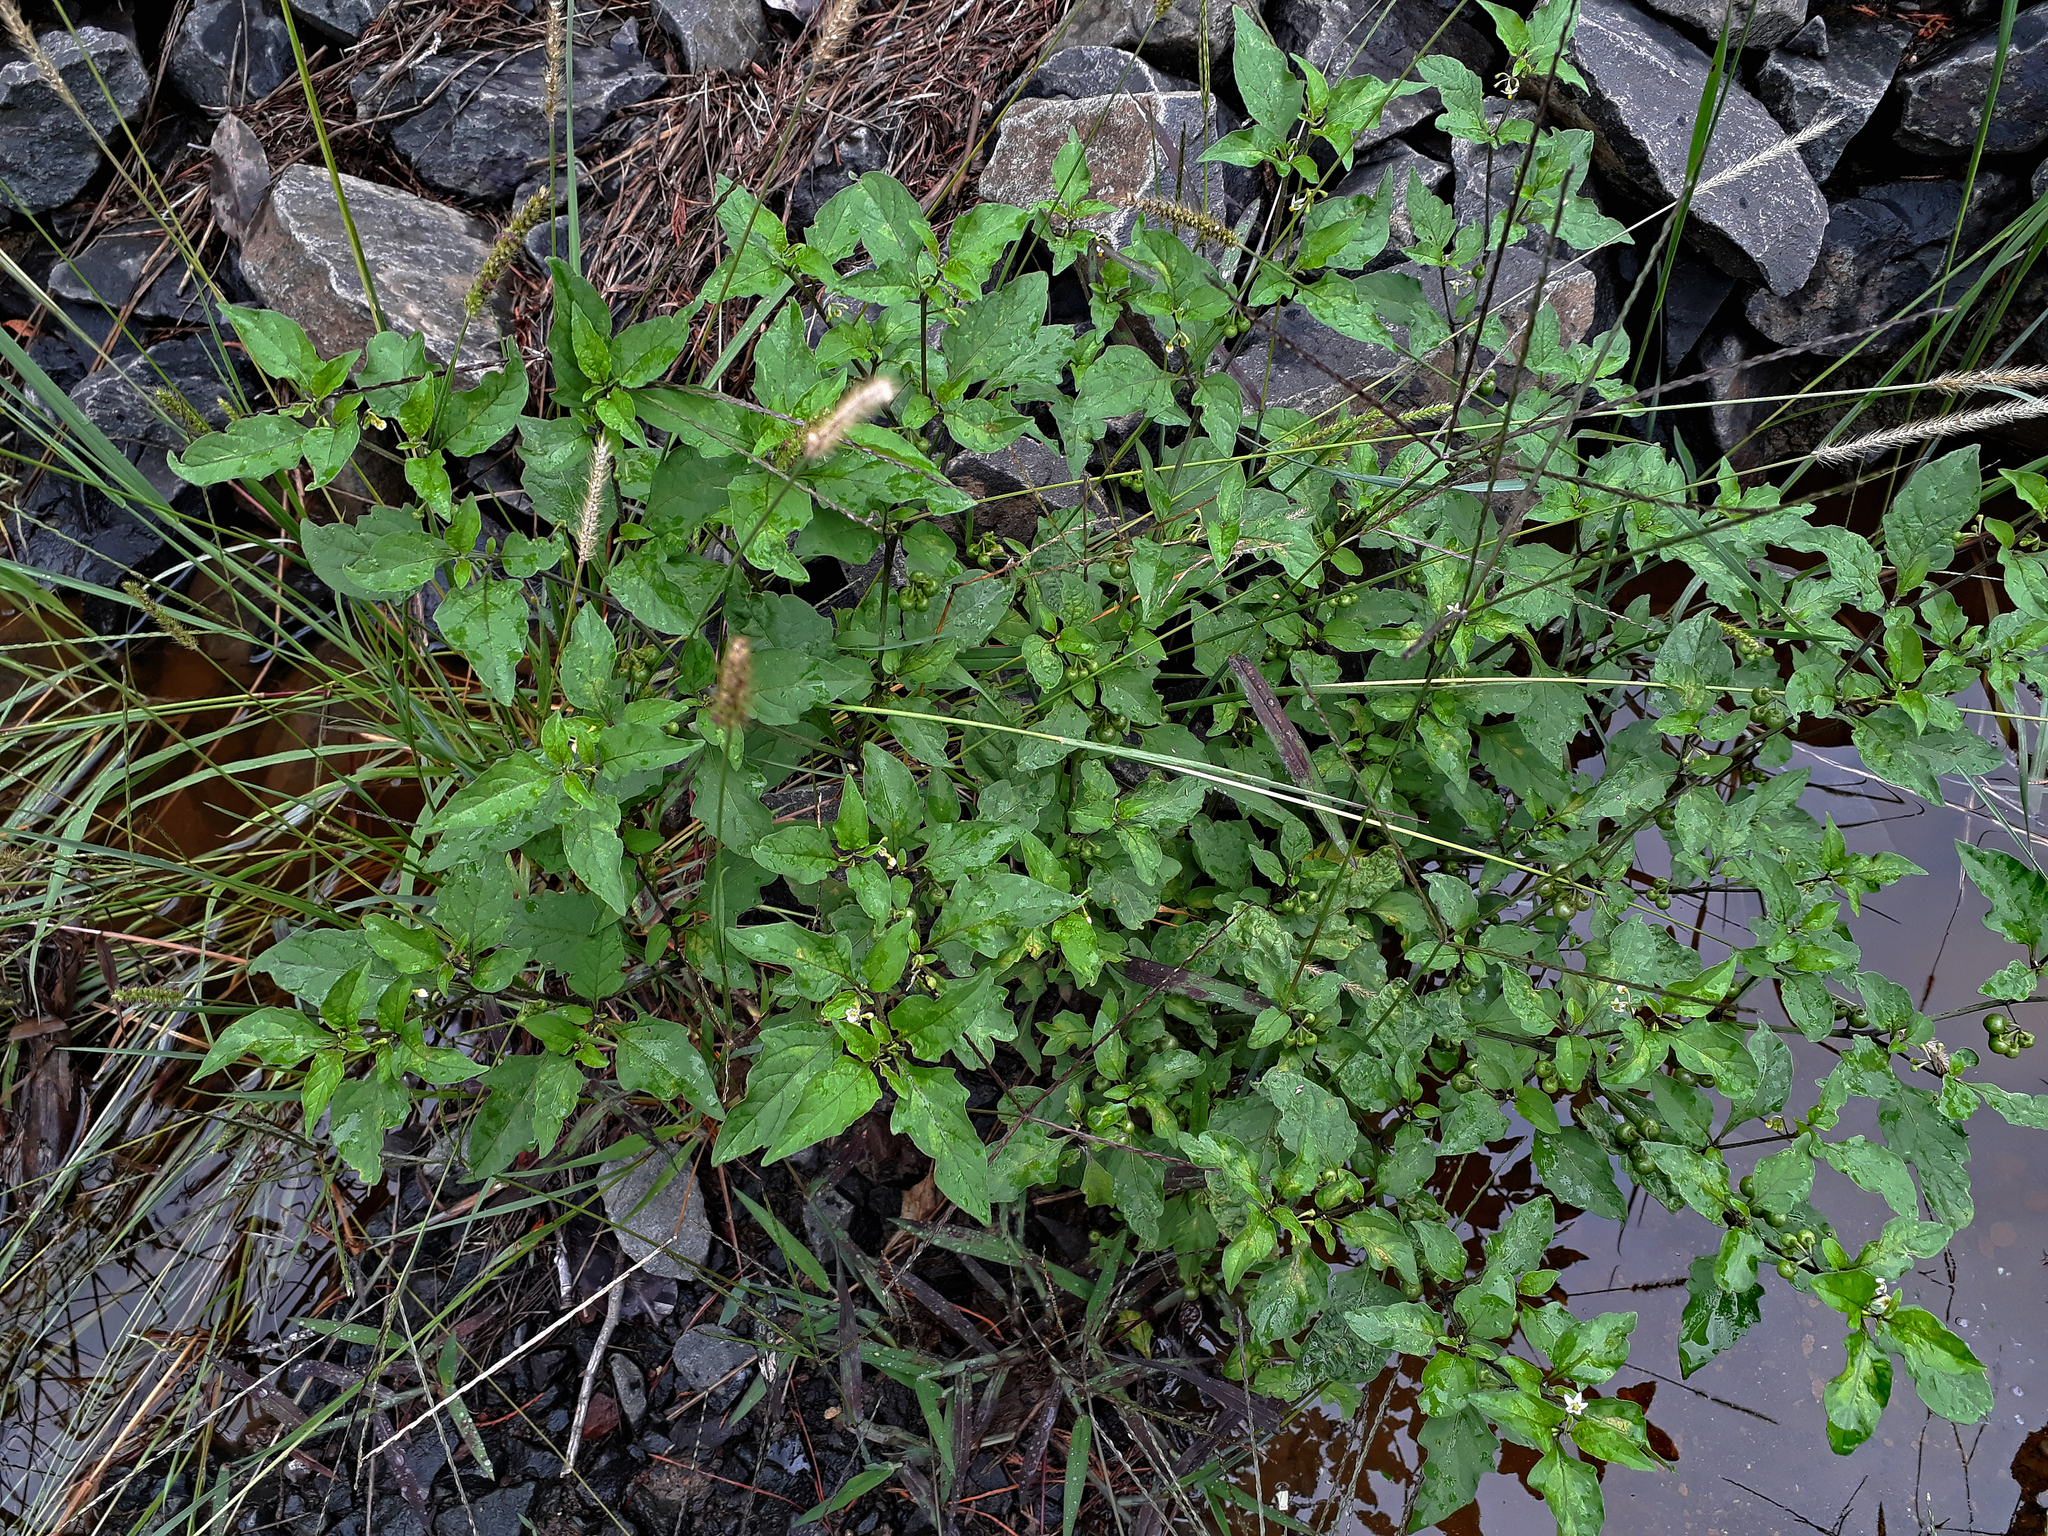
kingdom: Plantae
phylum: Tracheophyta
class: Magnoliopsida
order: Solanales
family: Solanaceae
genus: Solanum
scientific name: Solanum opacum
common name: Green-berry nightshade
